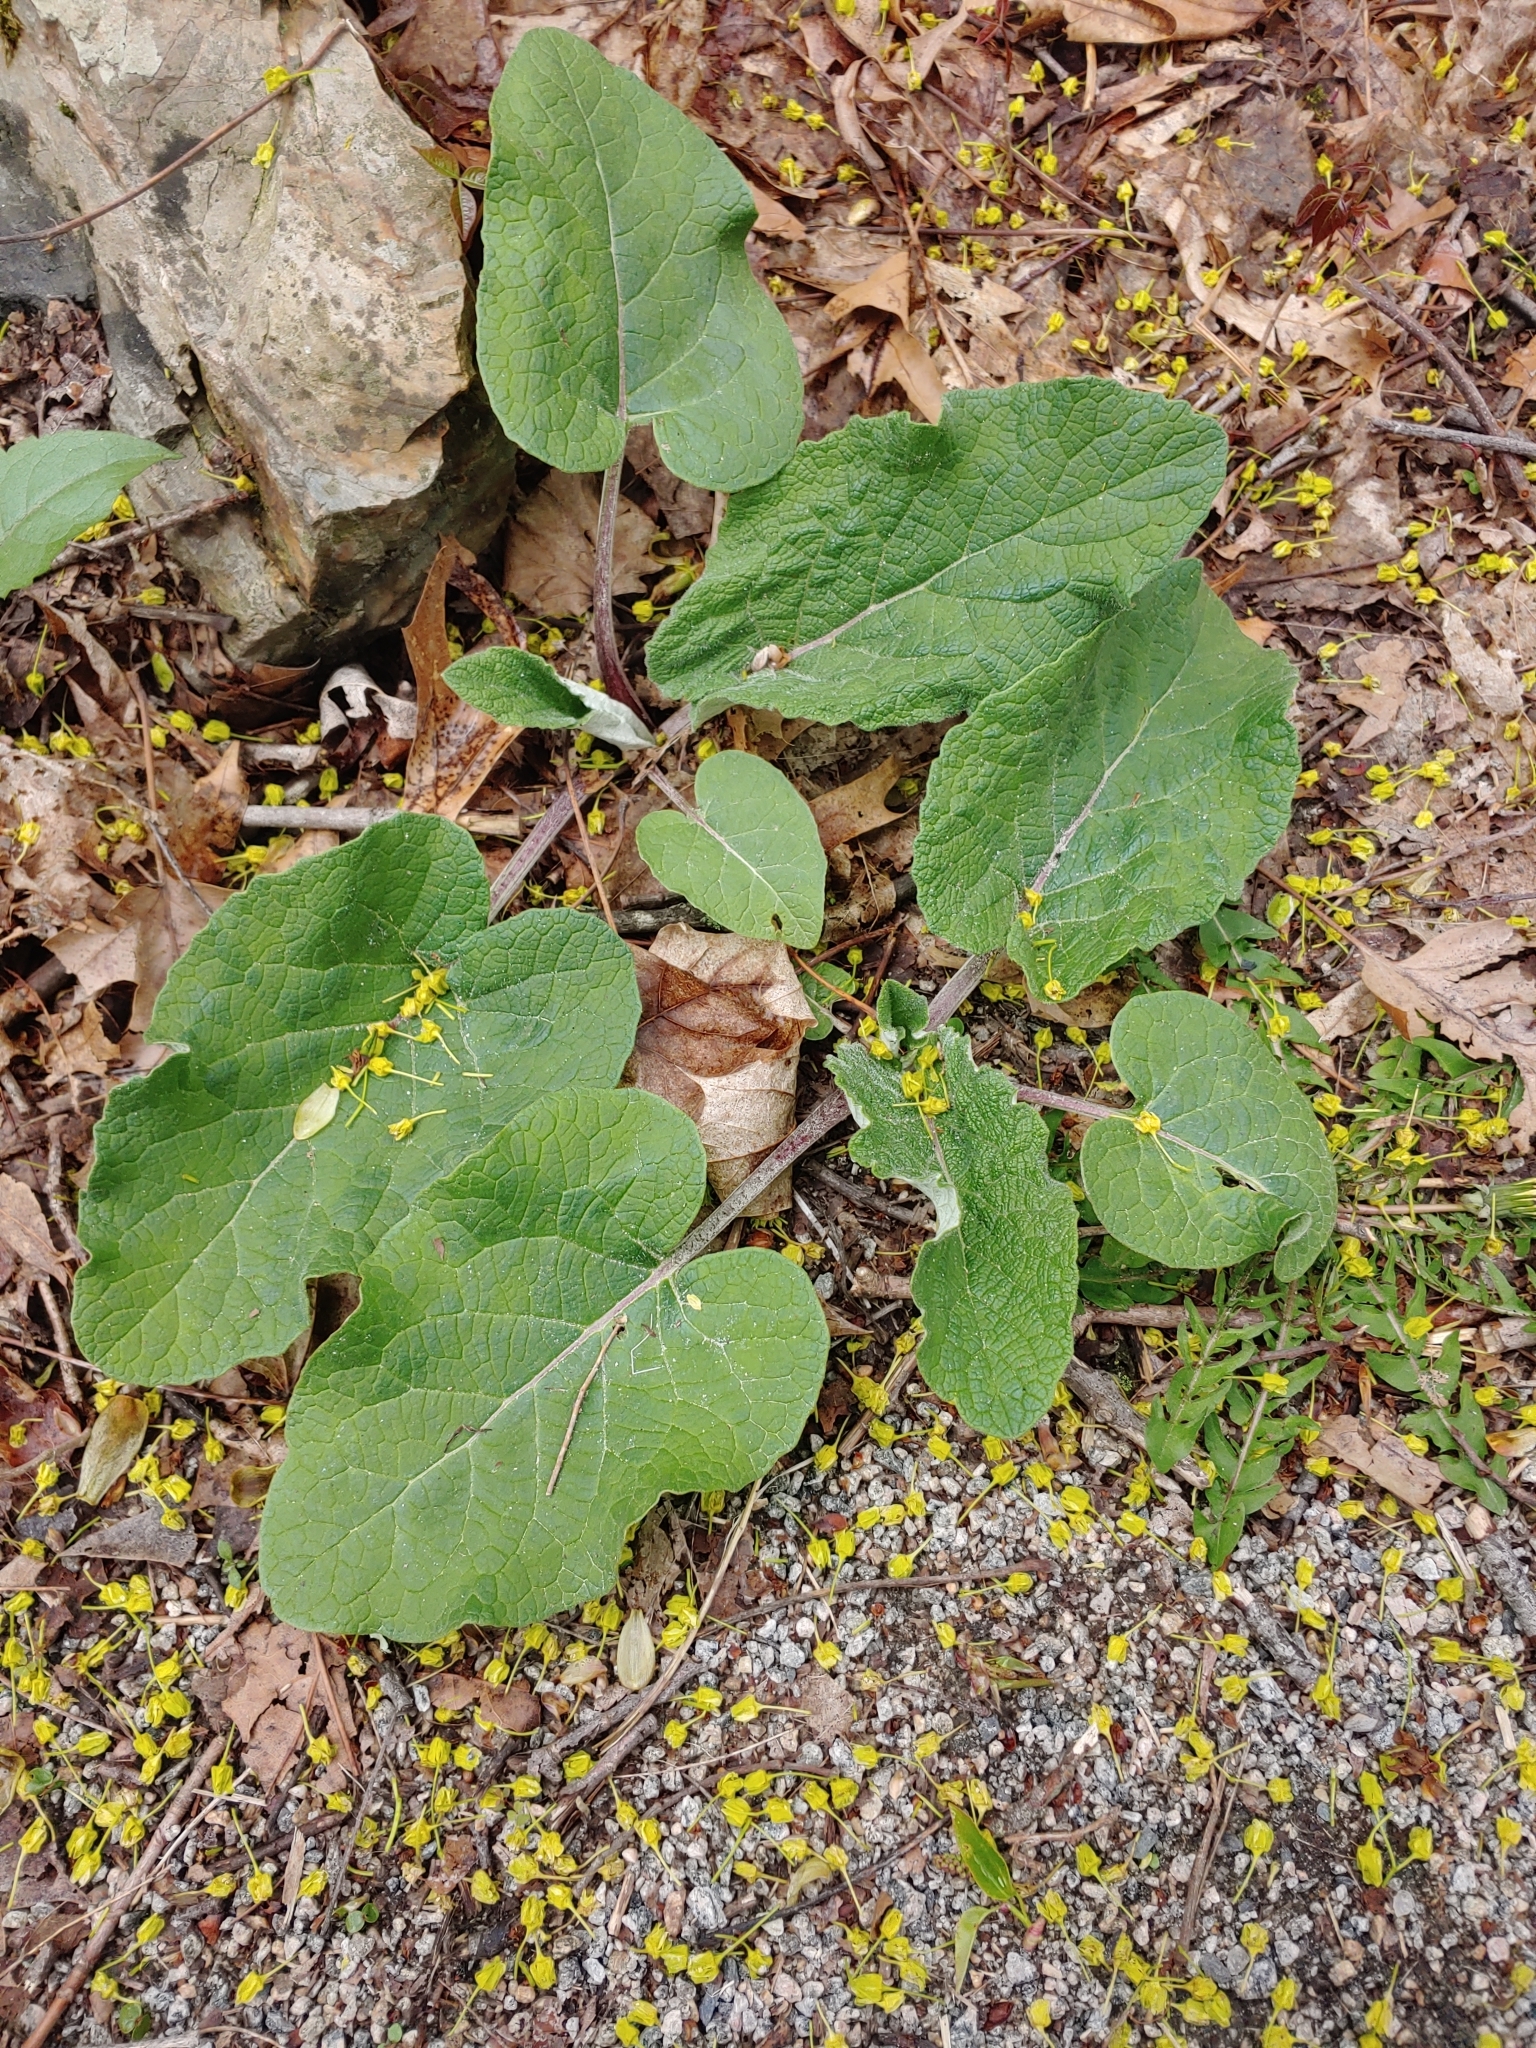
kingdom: Plantae
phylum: Tracheophyta
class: Magnoliopsida
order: Asterales
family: Asteraceae
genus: Arctium
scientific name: Arctium
